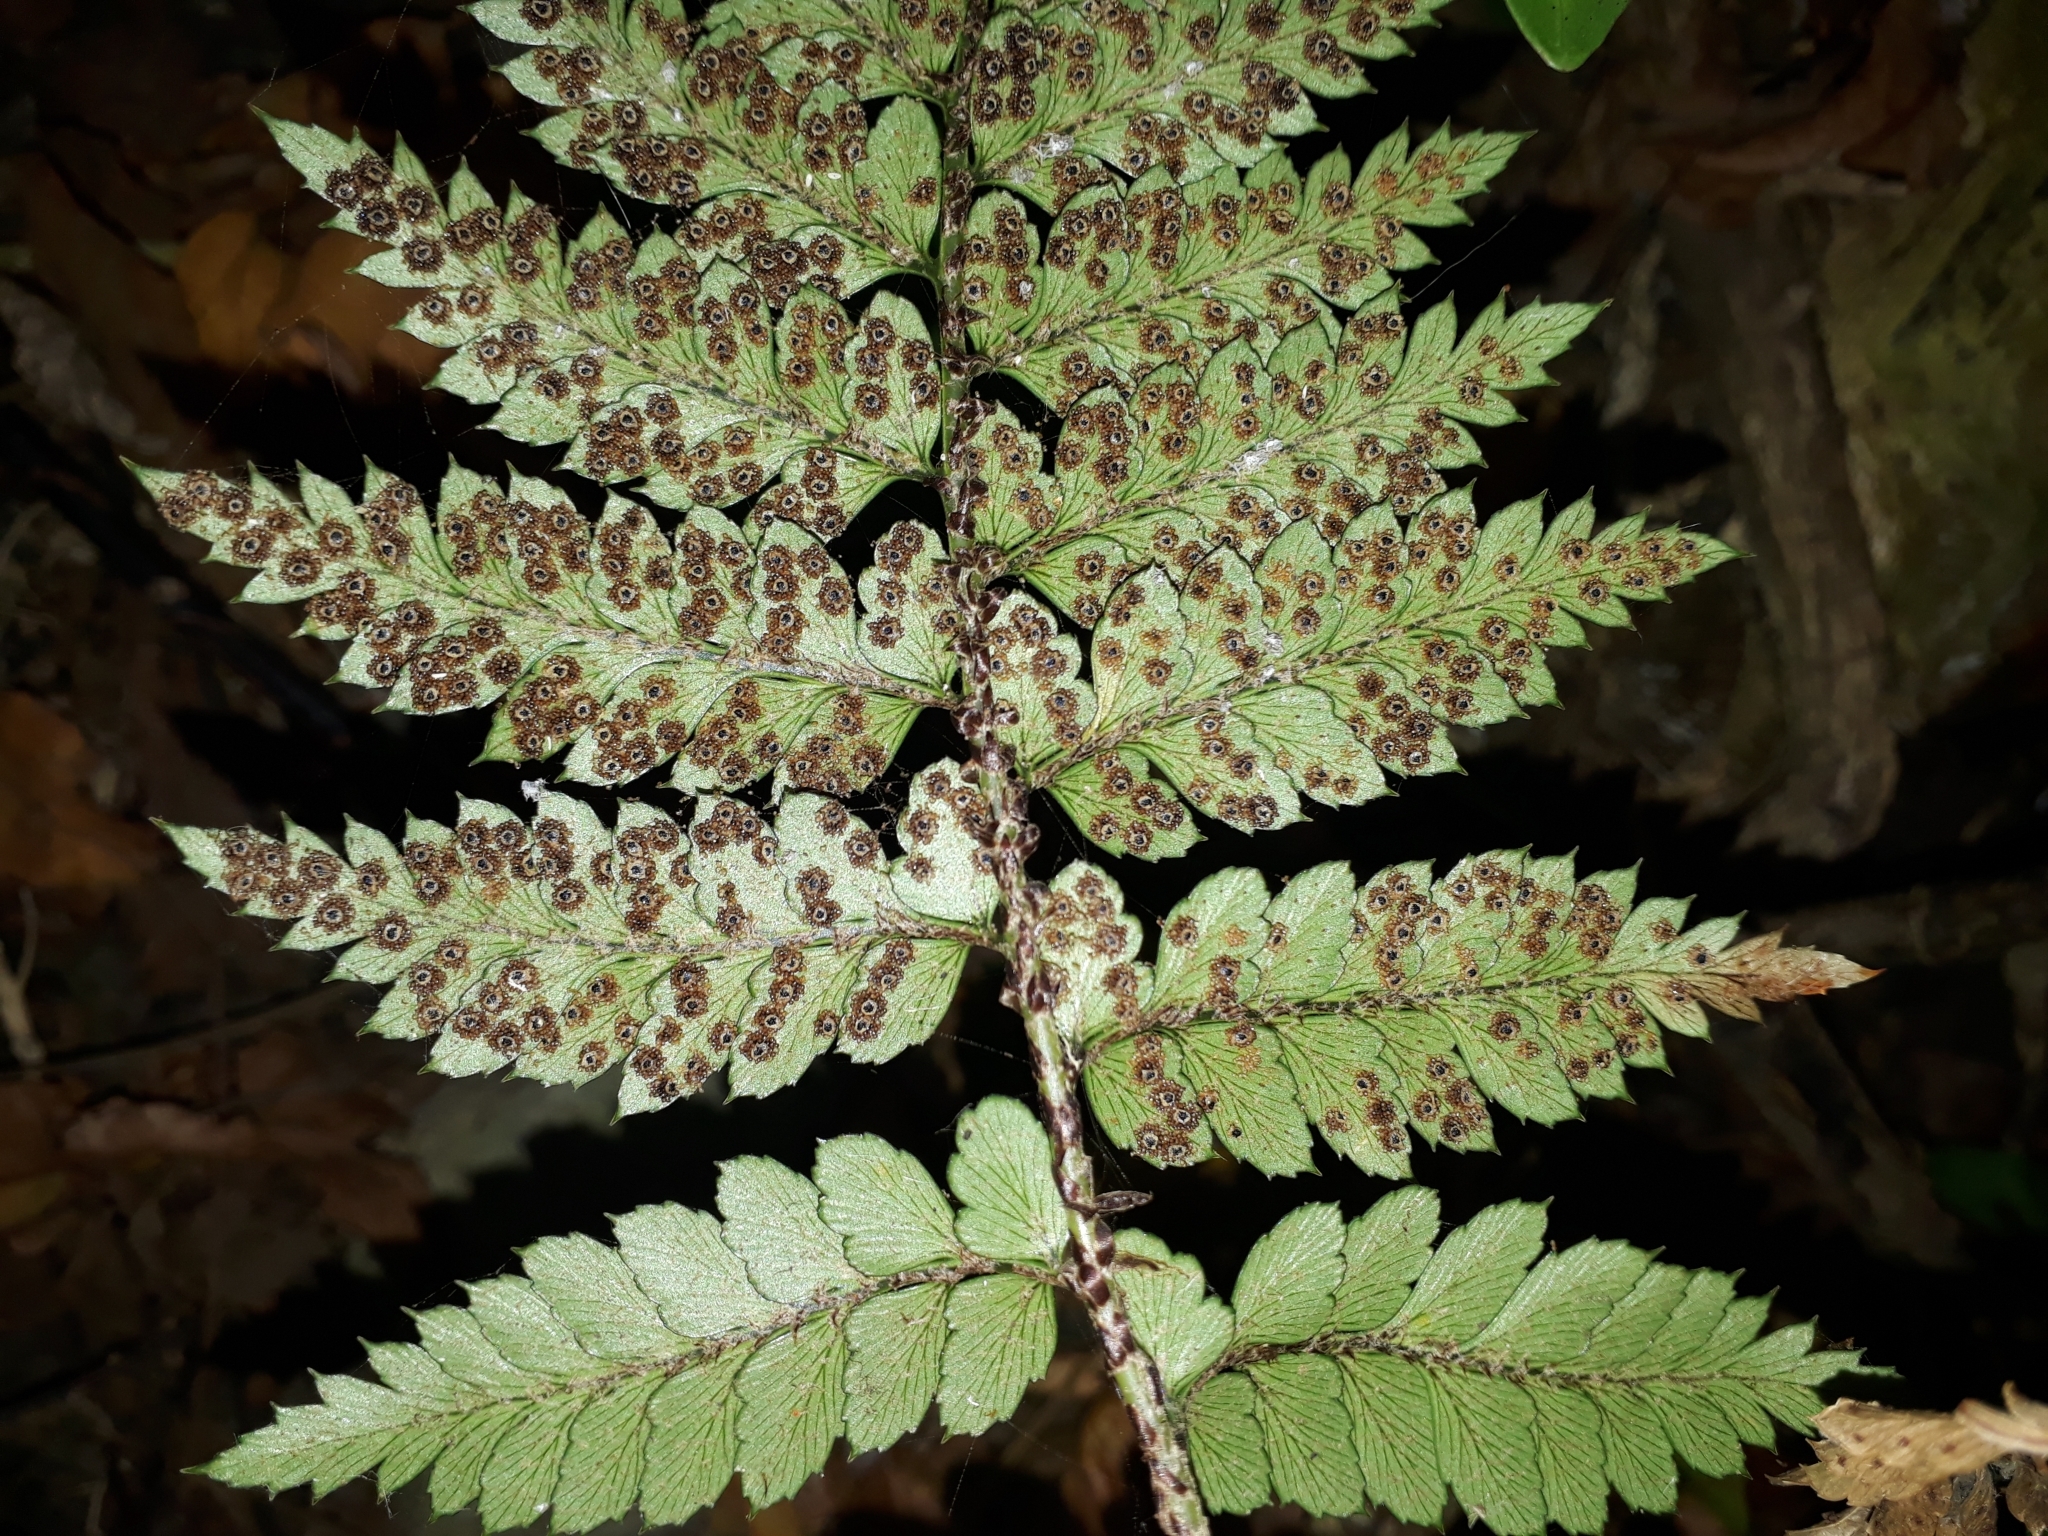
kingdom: Plantae
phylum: Tracheophyta
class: Polypodiopsida
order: Polypodiales
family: Dryopteridaceae
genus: Polystichum
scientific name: Polystichum oculatum
